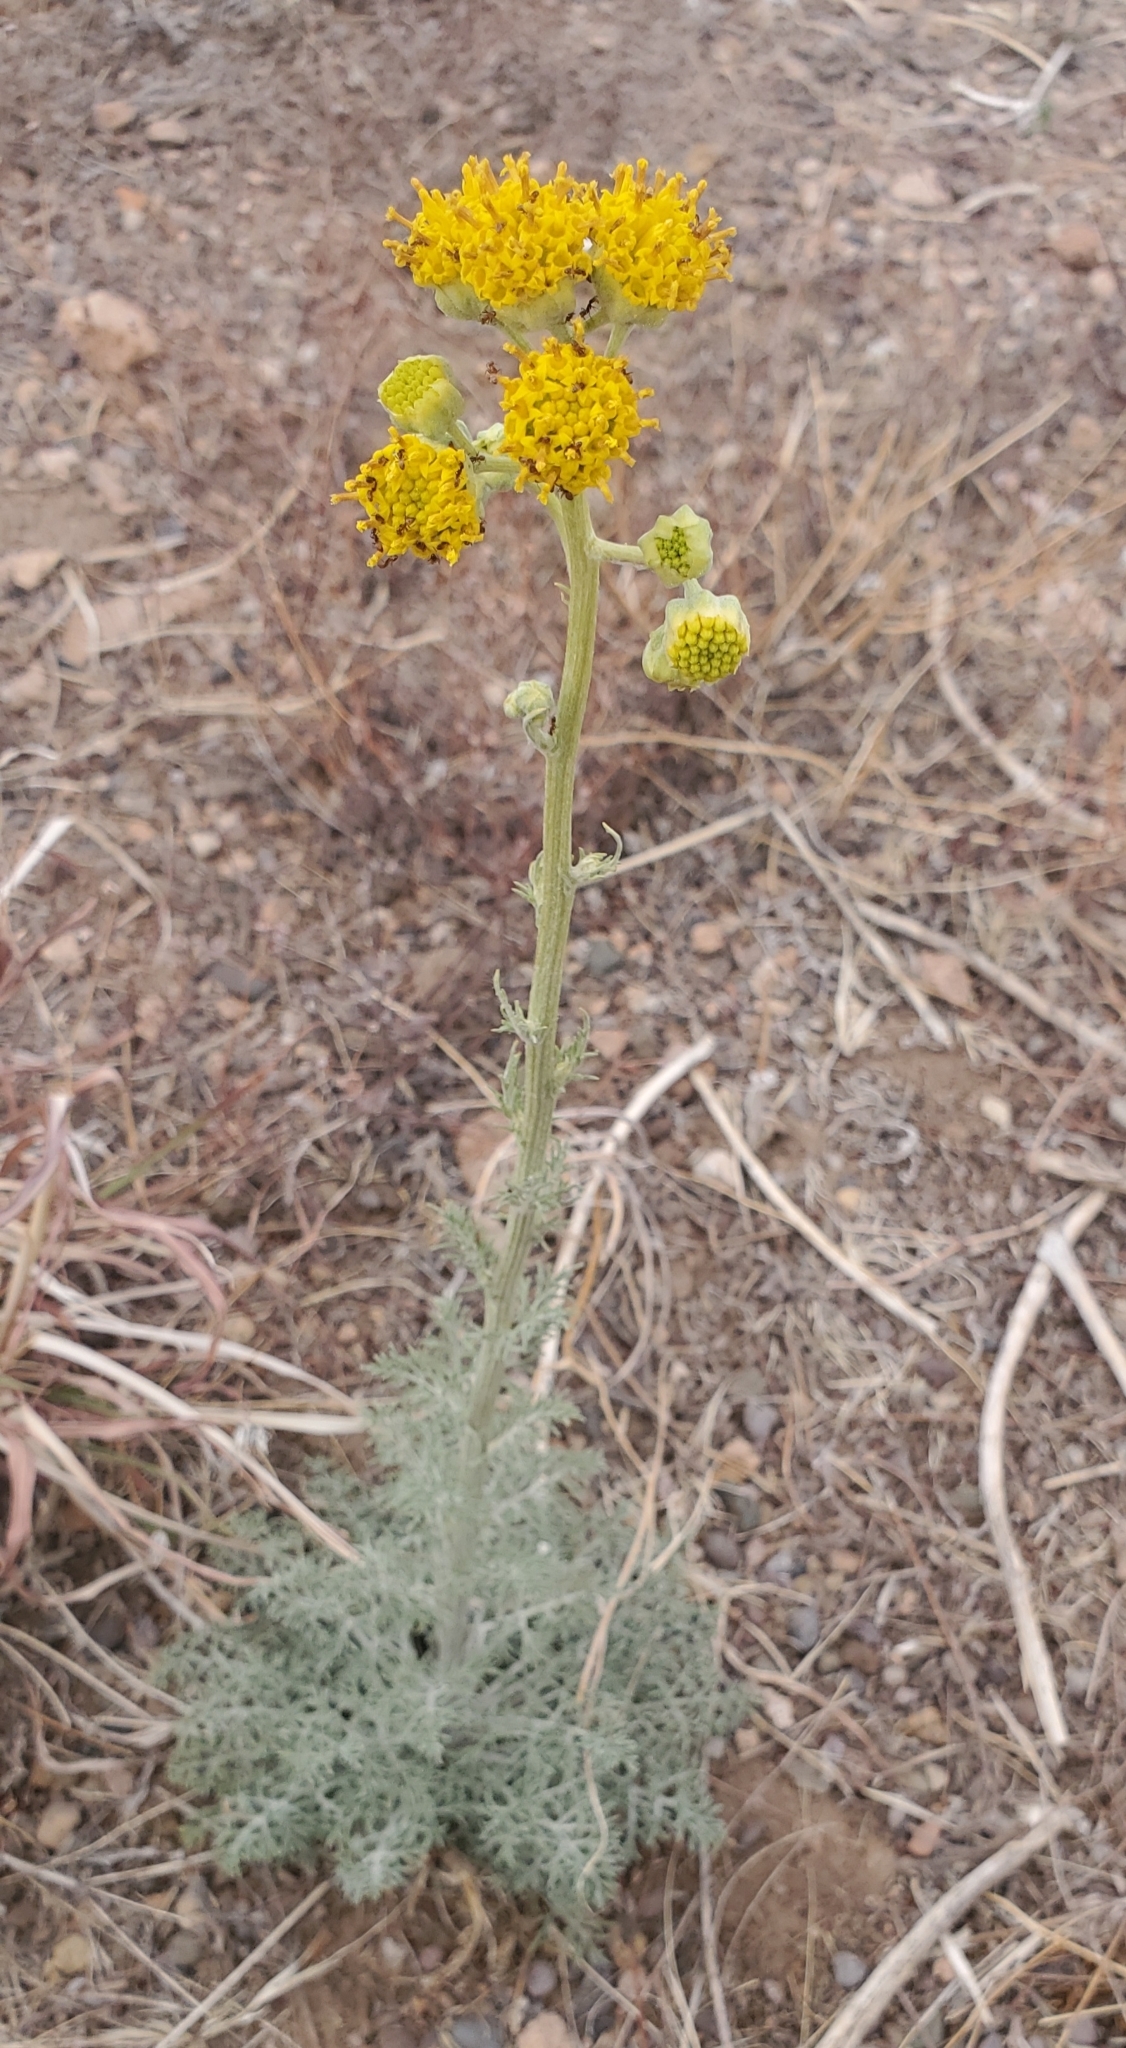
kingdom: Plantae
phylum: Tracheophyta
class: Magnoliopsida
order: Asterales
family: Asteraceae
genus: Hymenopappus
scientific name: Hymenopappus filifolius
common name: Columbia cutleaf
